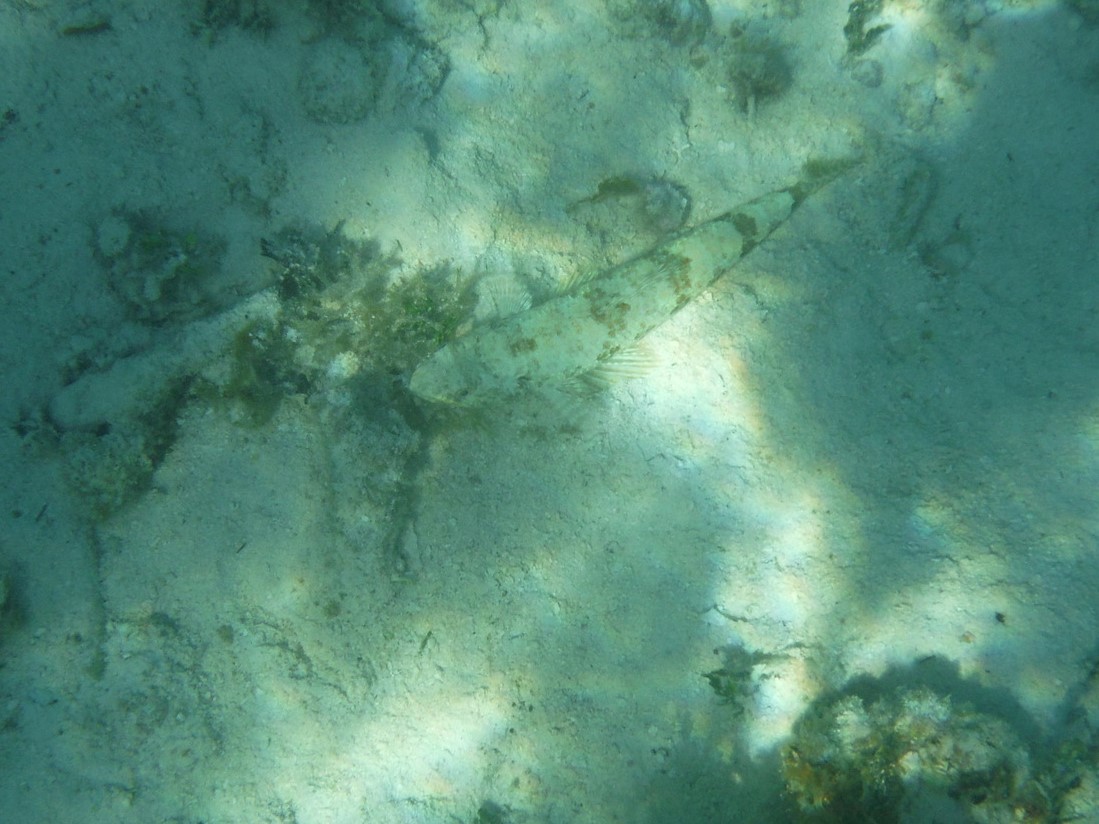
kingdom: Animalia
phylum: Chordata
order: Aulopiformes
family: Synodontidae
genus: Synodus
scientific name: Synodus intermedius
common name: Sand diver
